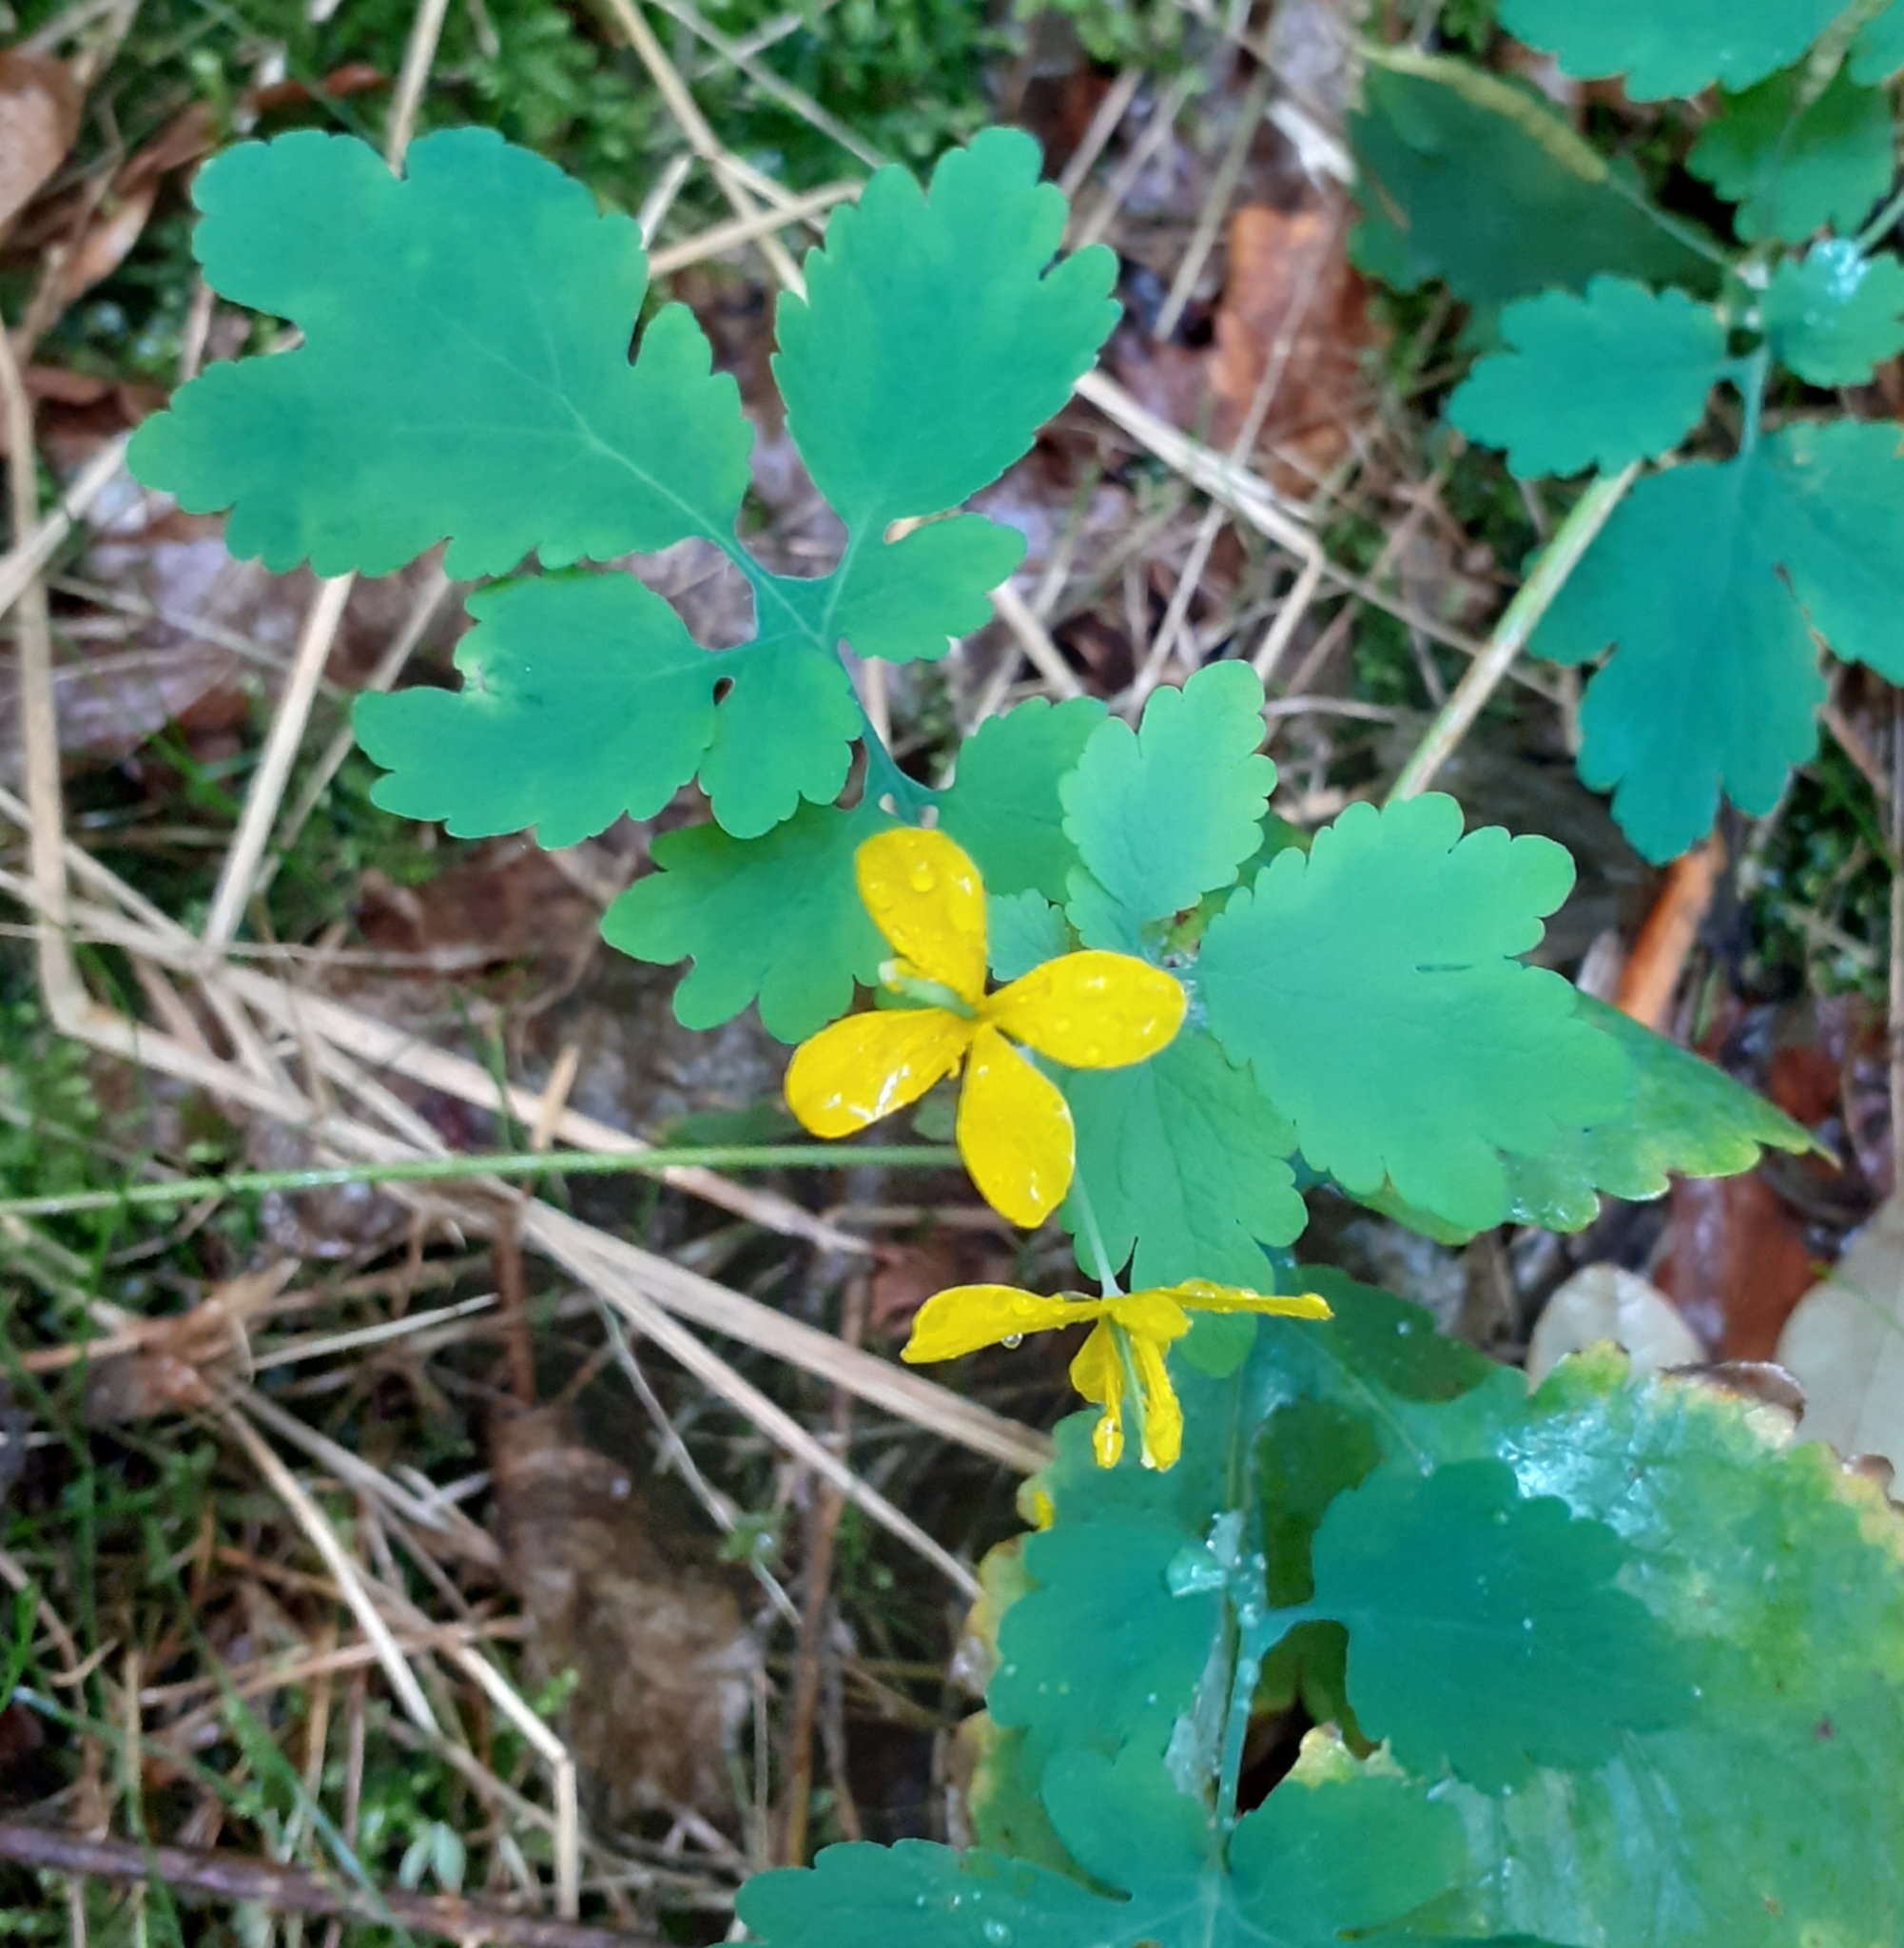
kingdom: Plantae
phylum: Tracheophyta
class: Magnoliopsida
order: Ranunculales
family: Papaveraceae
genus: Chelidonium
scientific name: Chelidonium majus
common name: Greater celandine
